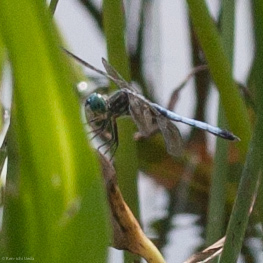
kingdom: Animalia
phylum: Arthropoda
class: Insecta
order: Odonata
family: Libellulidae
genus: Pachydiplax
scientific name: Pachydiplax longipennis
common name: Blue dasher
